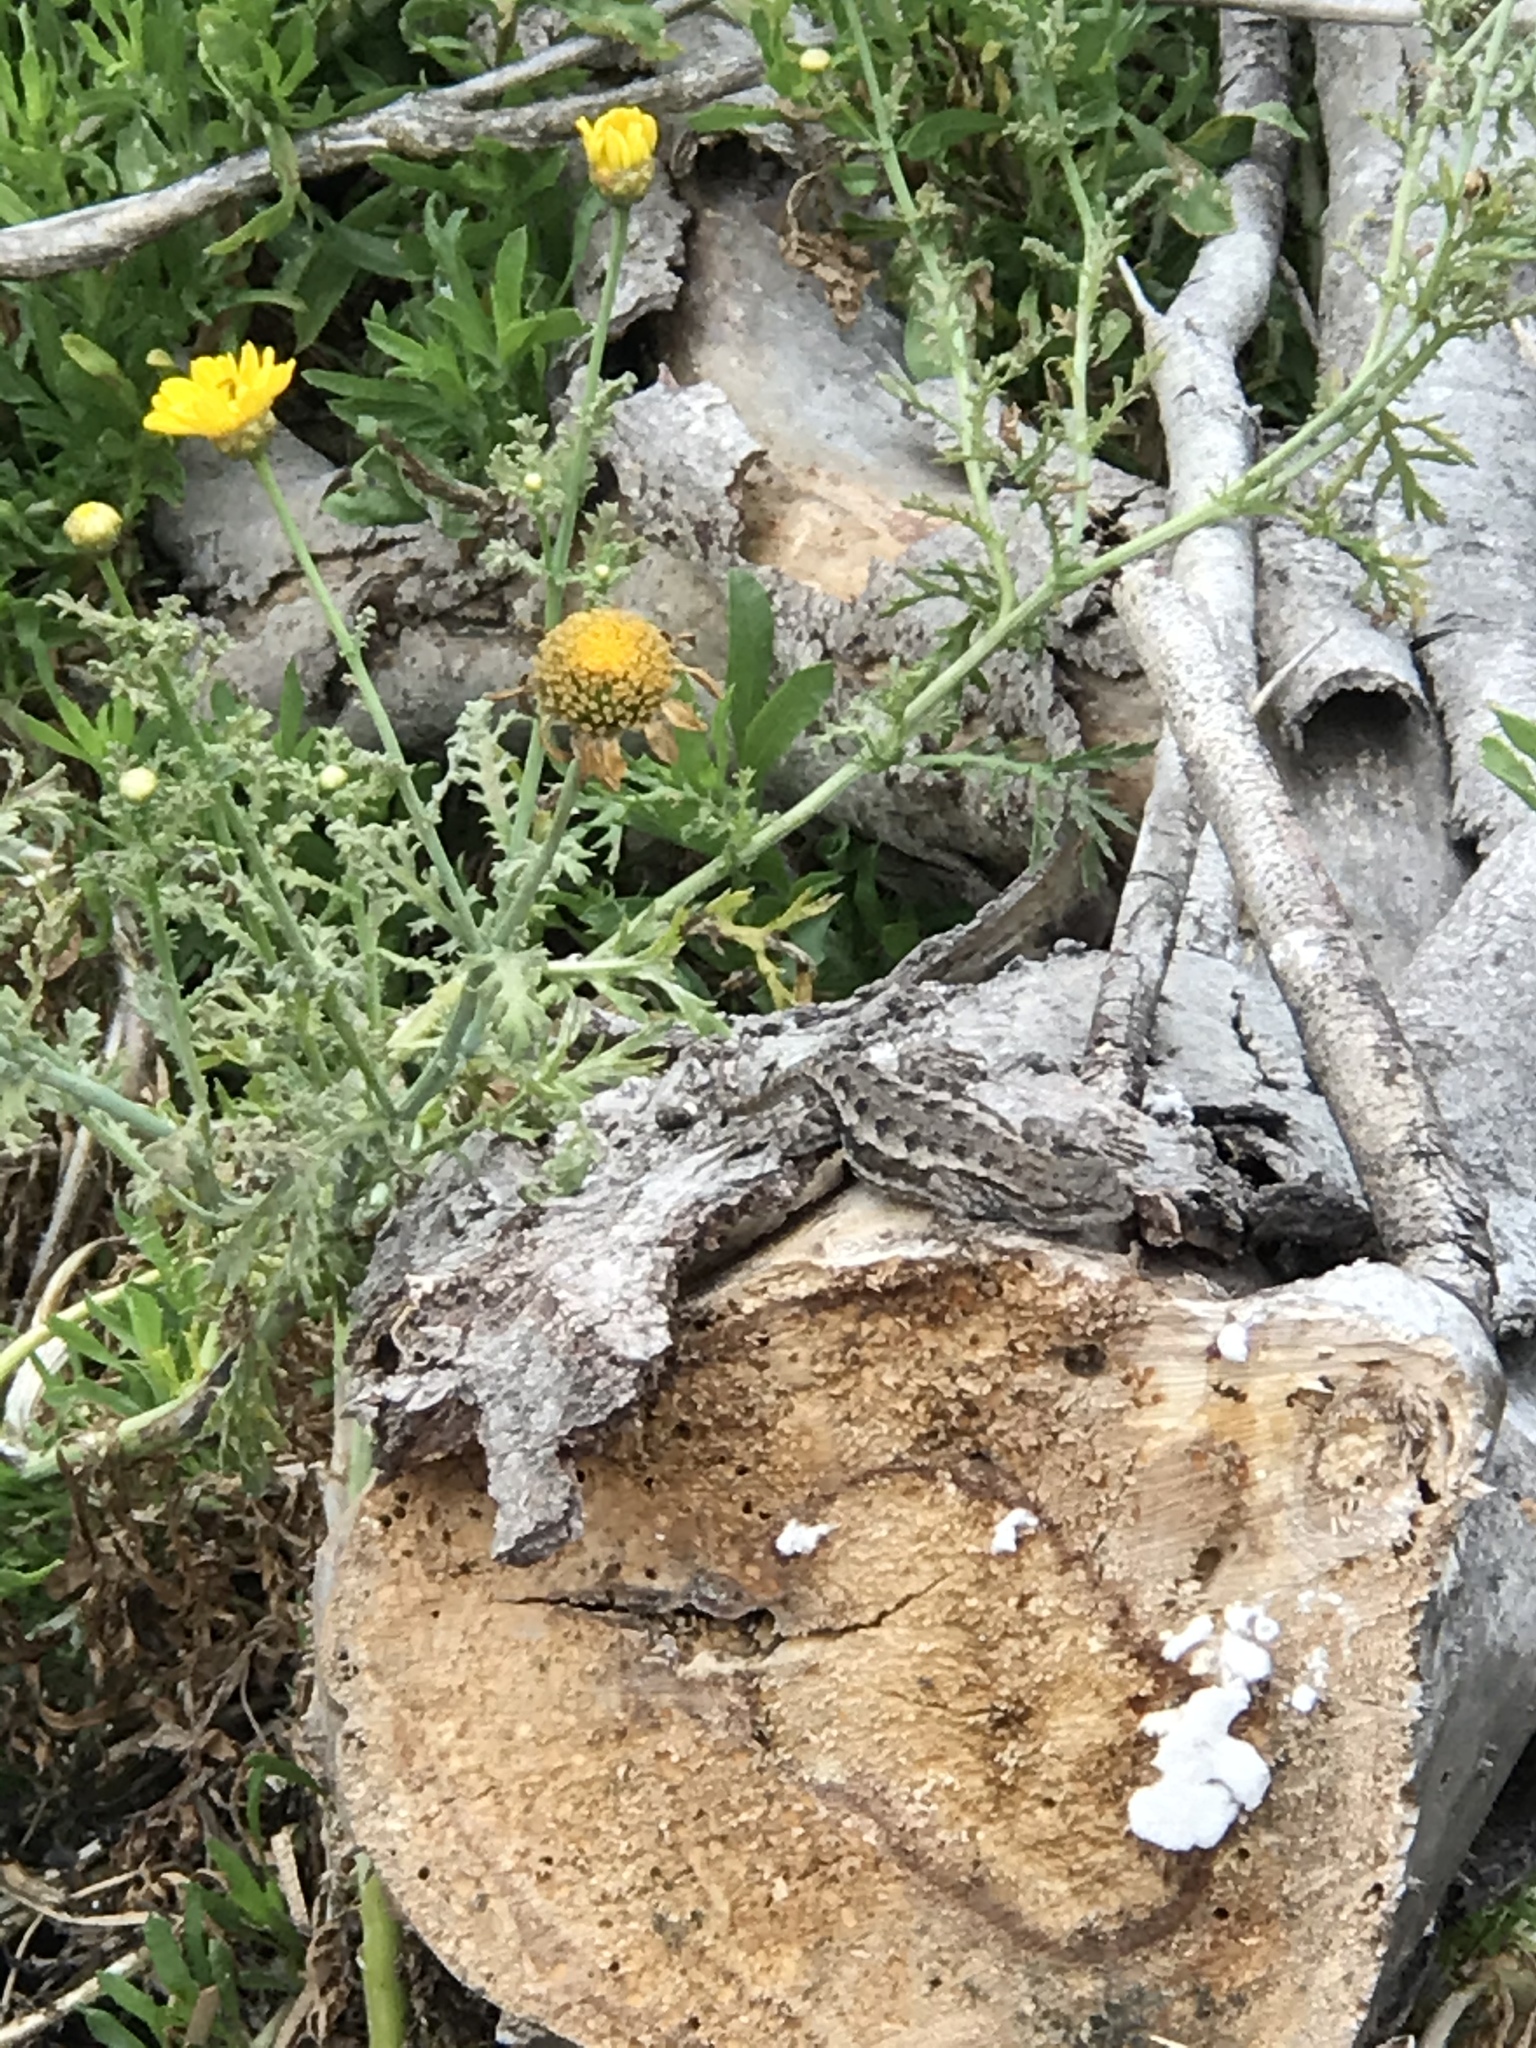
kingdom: Animalia
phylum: Chordata
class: Squamata
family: Phrynosomatidae
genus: Sceloporus
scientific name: Sceloporus occidentalis
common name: Western fence lizard
